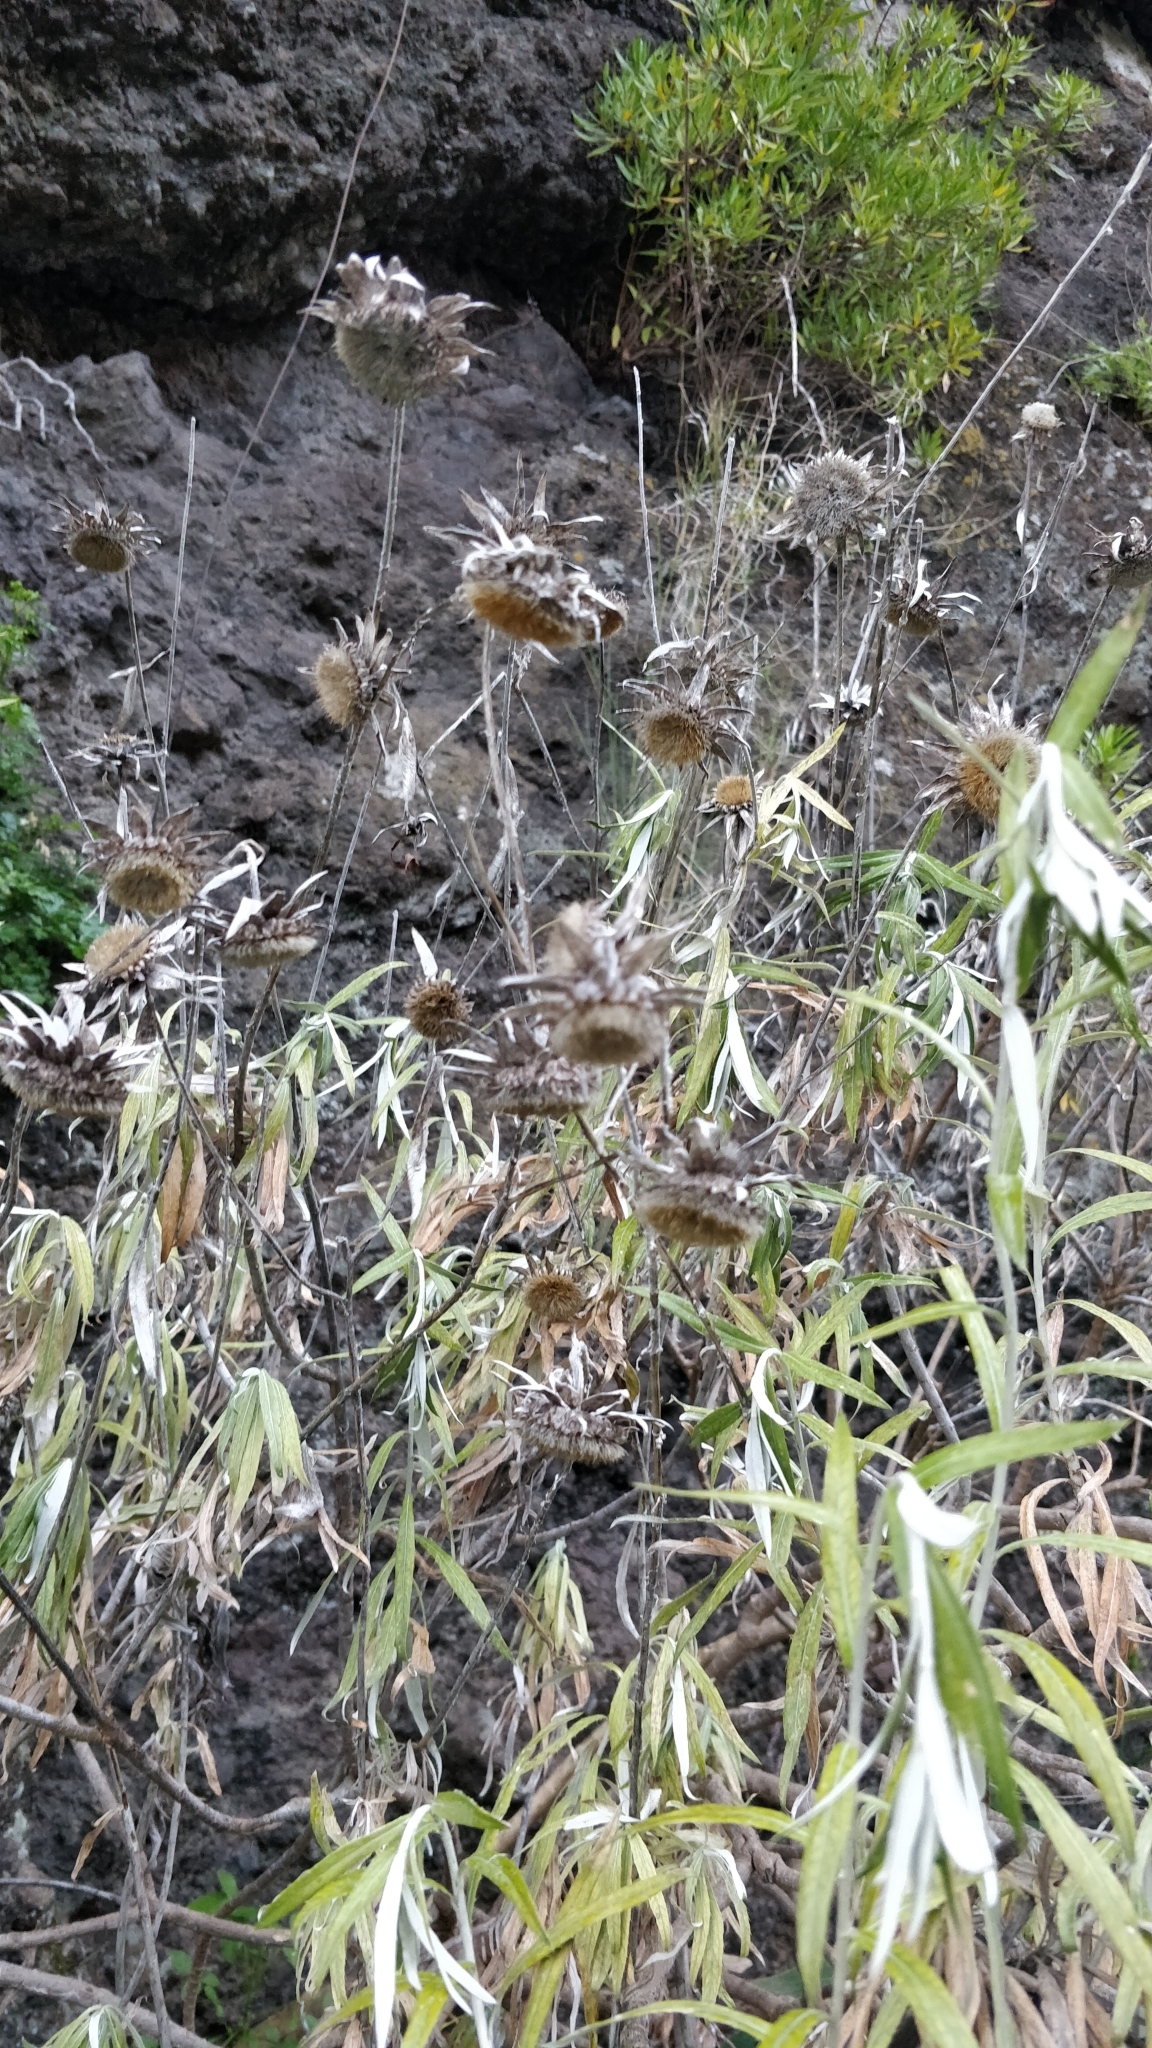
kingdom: Plantae
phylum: Tracheophyta
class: Magnoliopsida
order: Asterales
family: Asteraceae
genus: Carlina
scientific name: Carlina salicifolia
